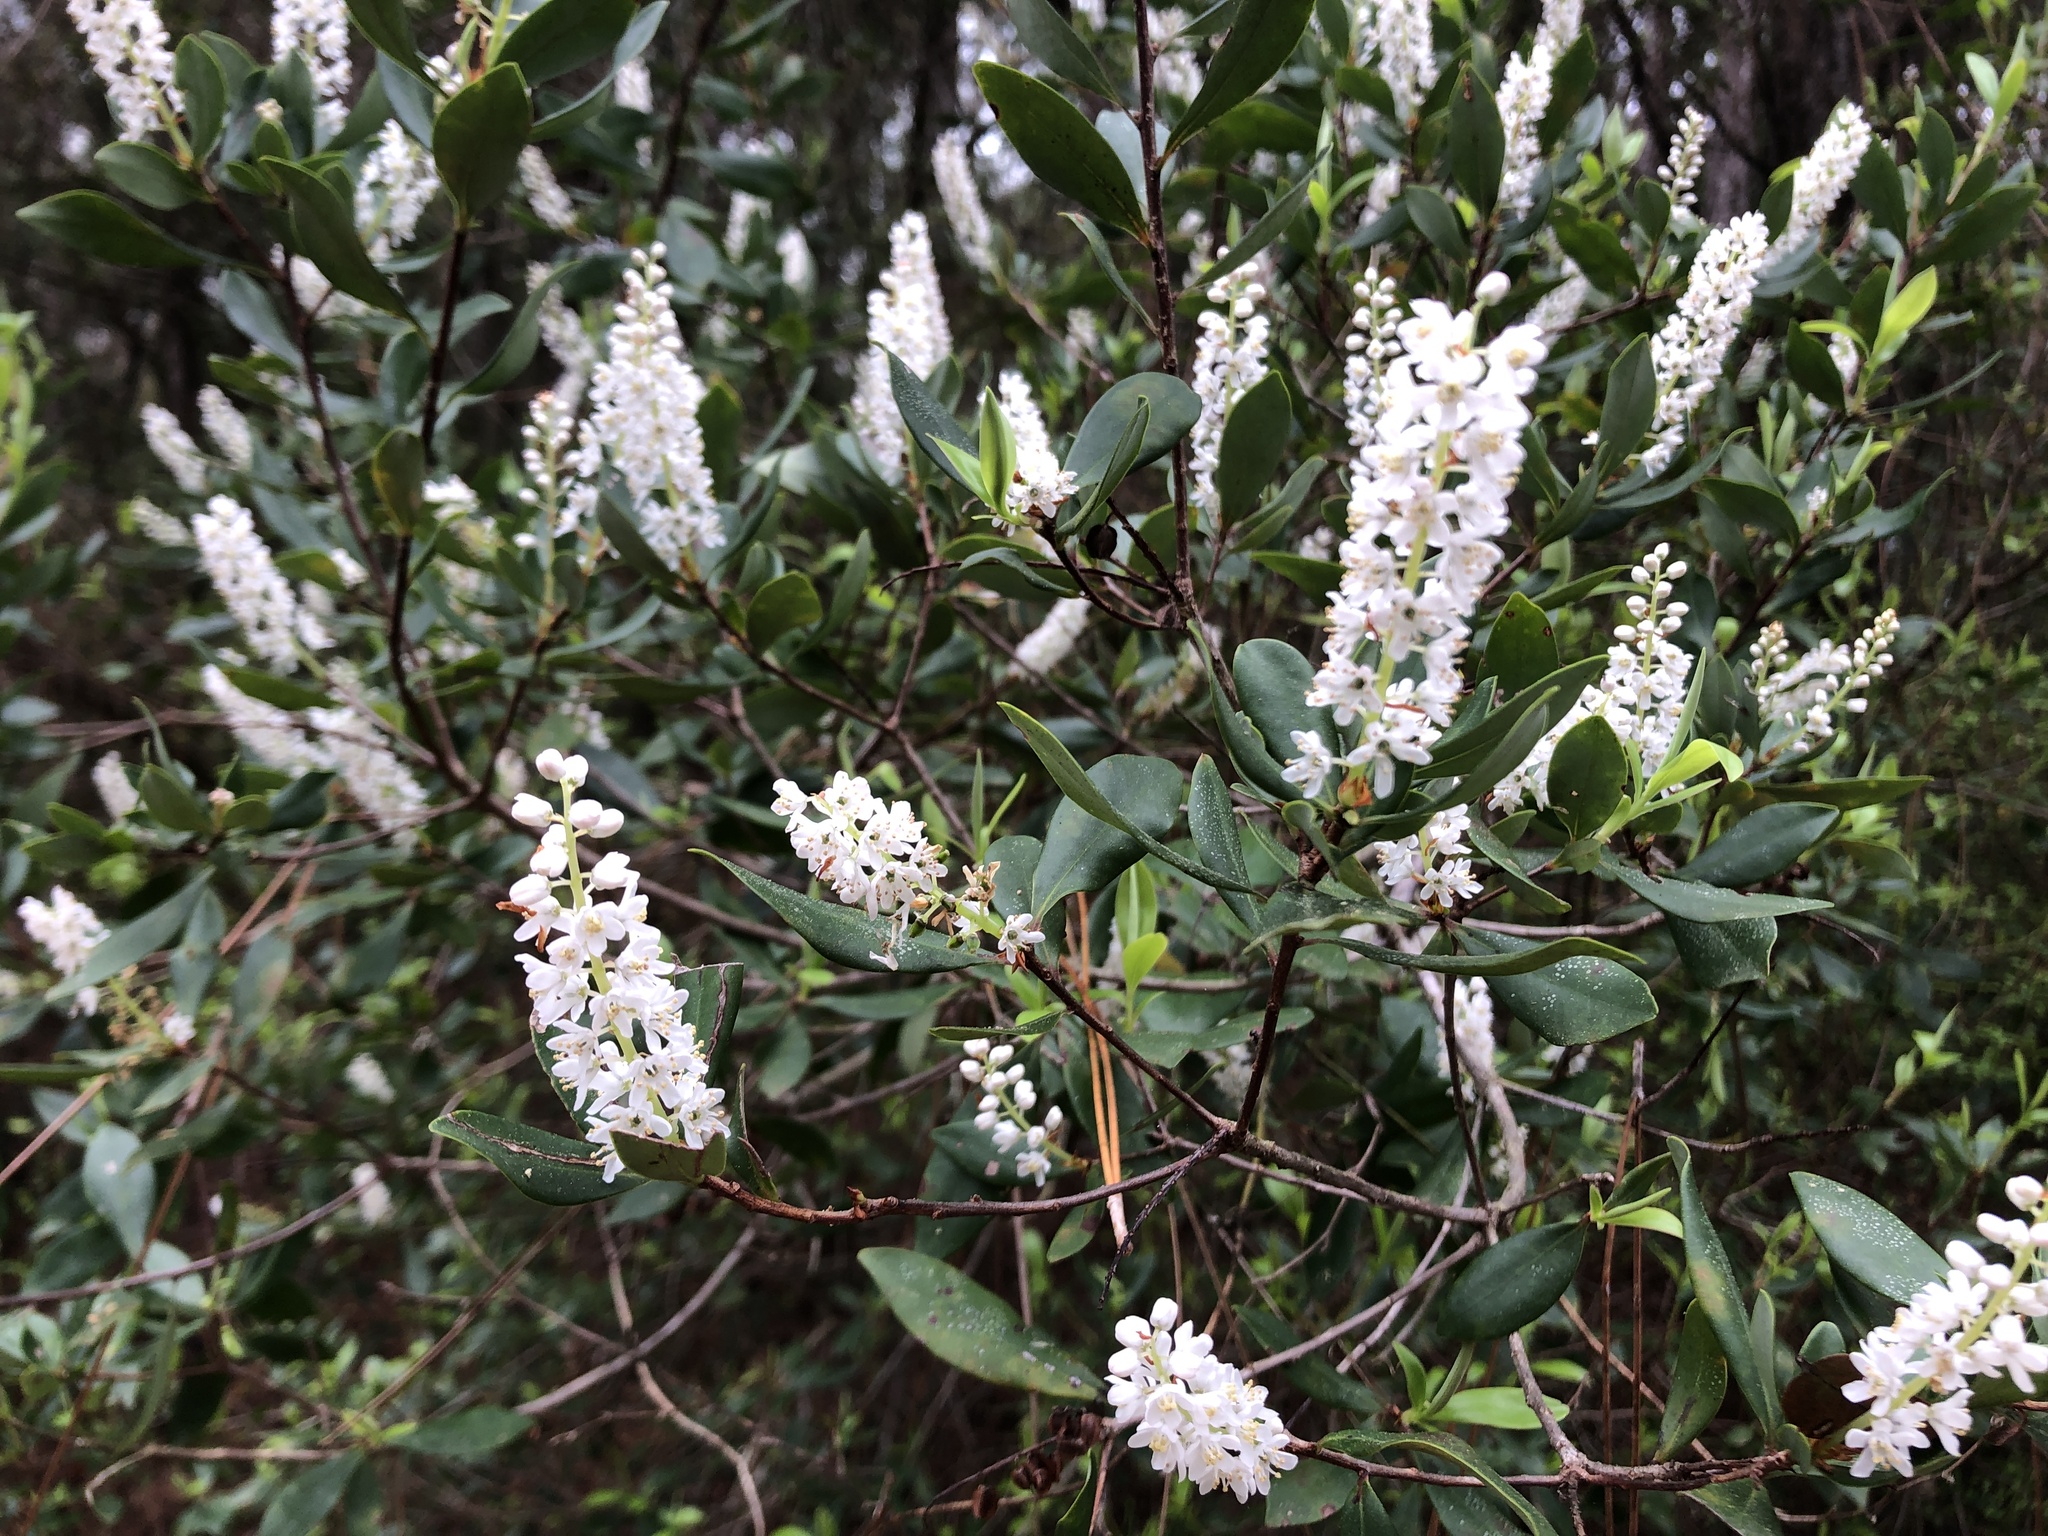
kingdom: Plantae
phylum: Tracheophyta
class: Magnoliopsida
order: Ericales
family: Cyrillaceae
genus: Cliftonia
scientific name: Cliftonia monophylla
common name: Titi
